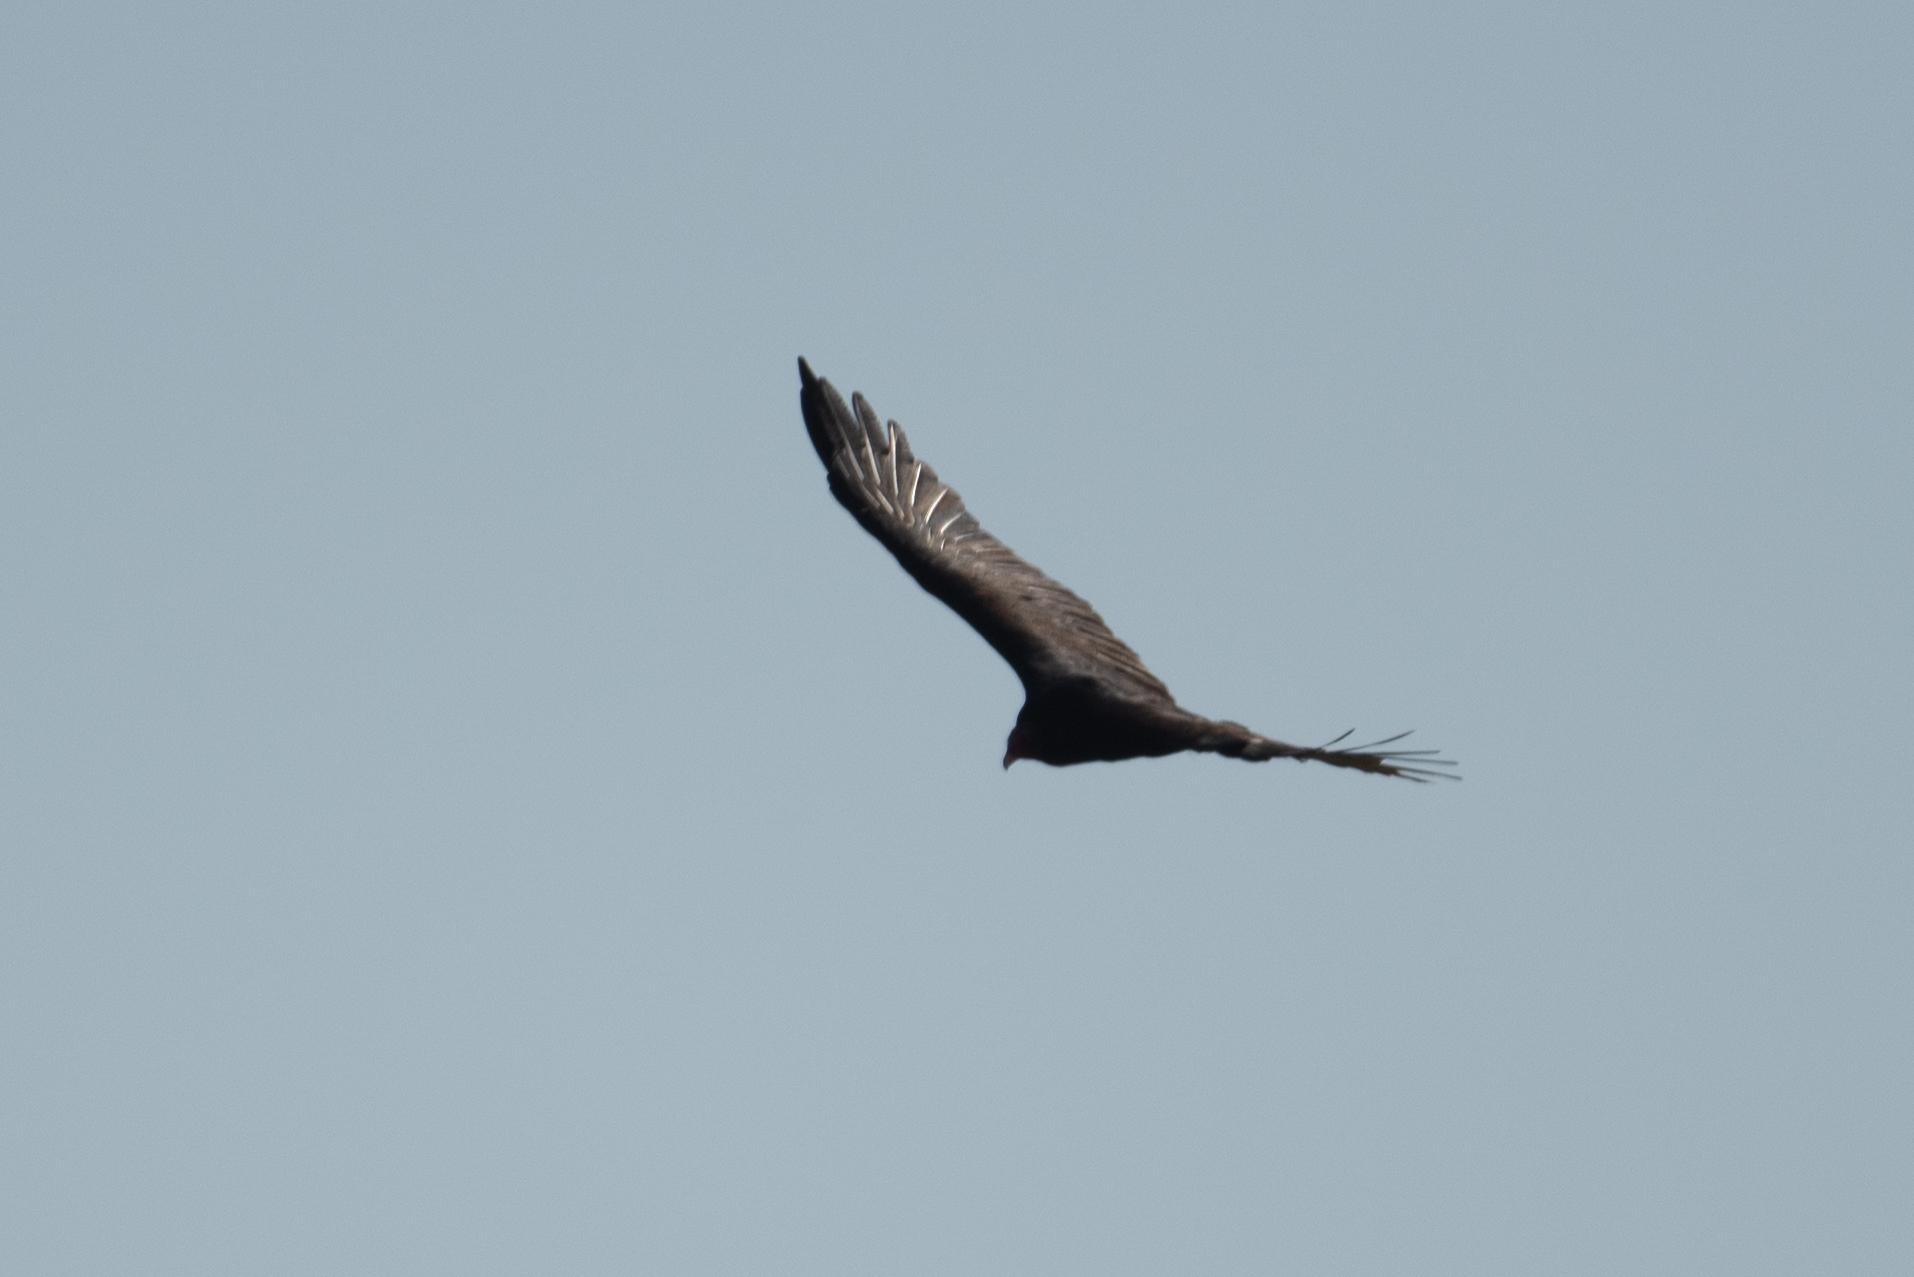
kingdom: Animalia
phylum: Chordata
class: Aves
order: Accipitriformes
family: Cathartidae
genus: Cathartes
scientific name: Cathartes aura
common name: Turkey vulture
